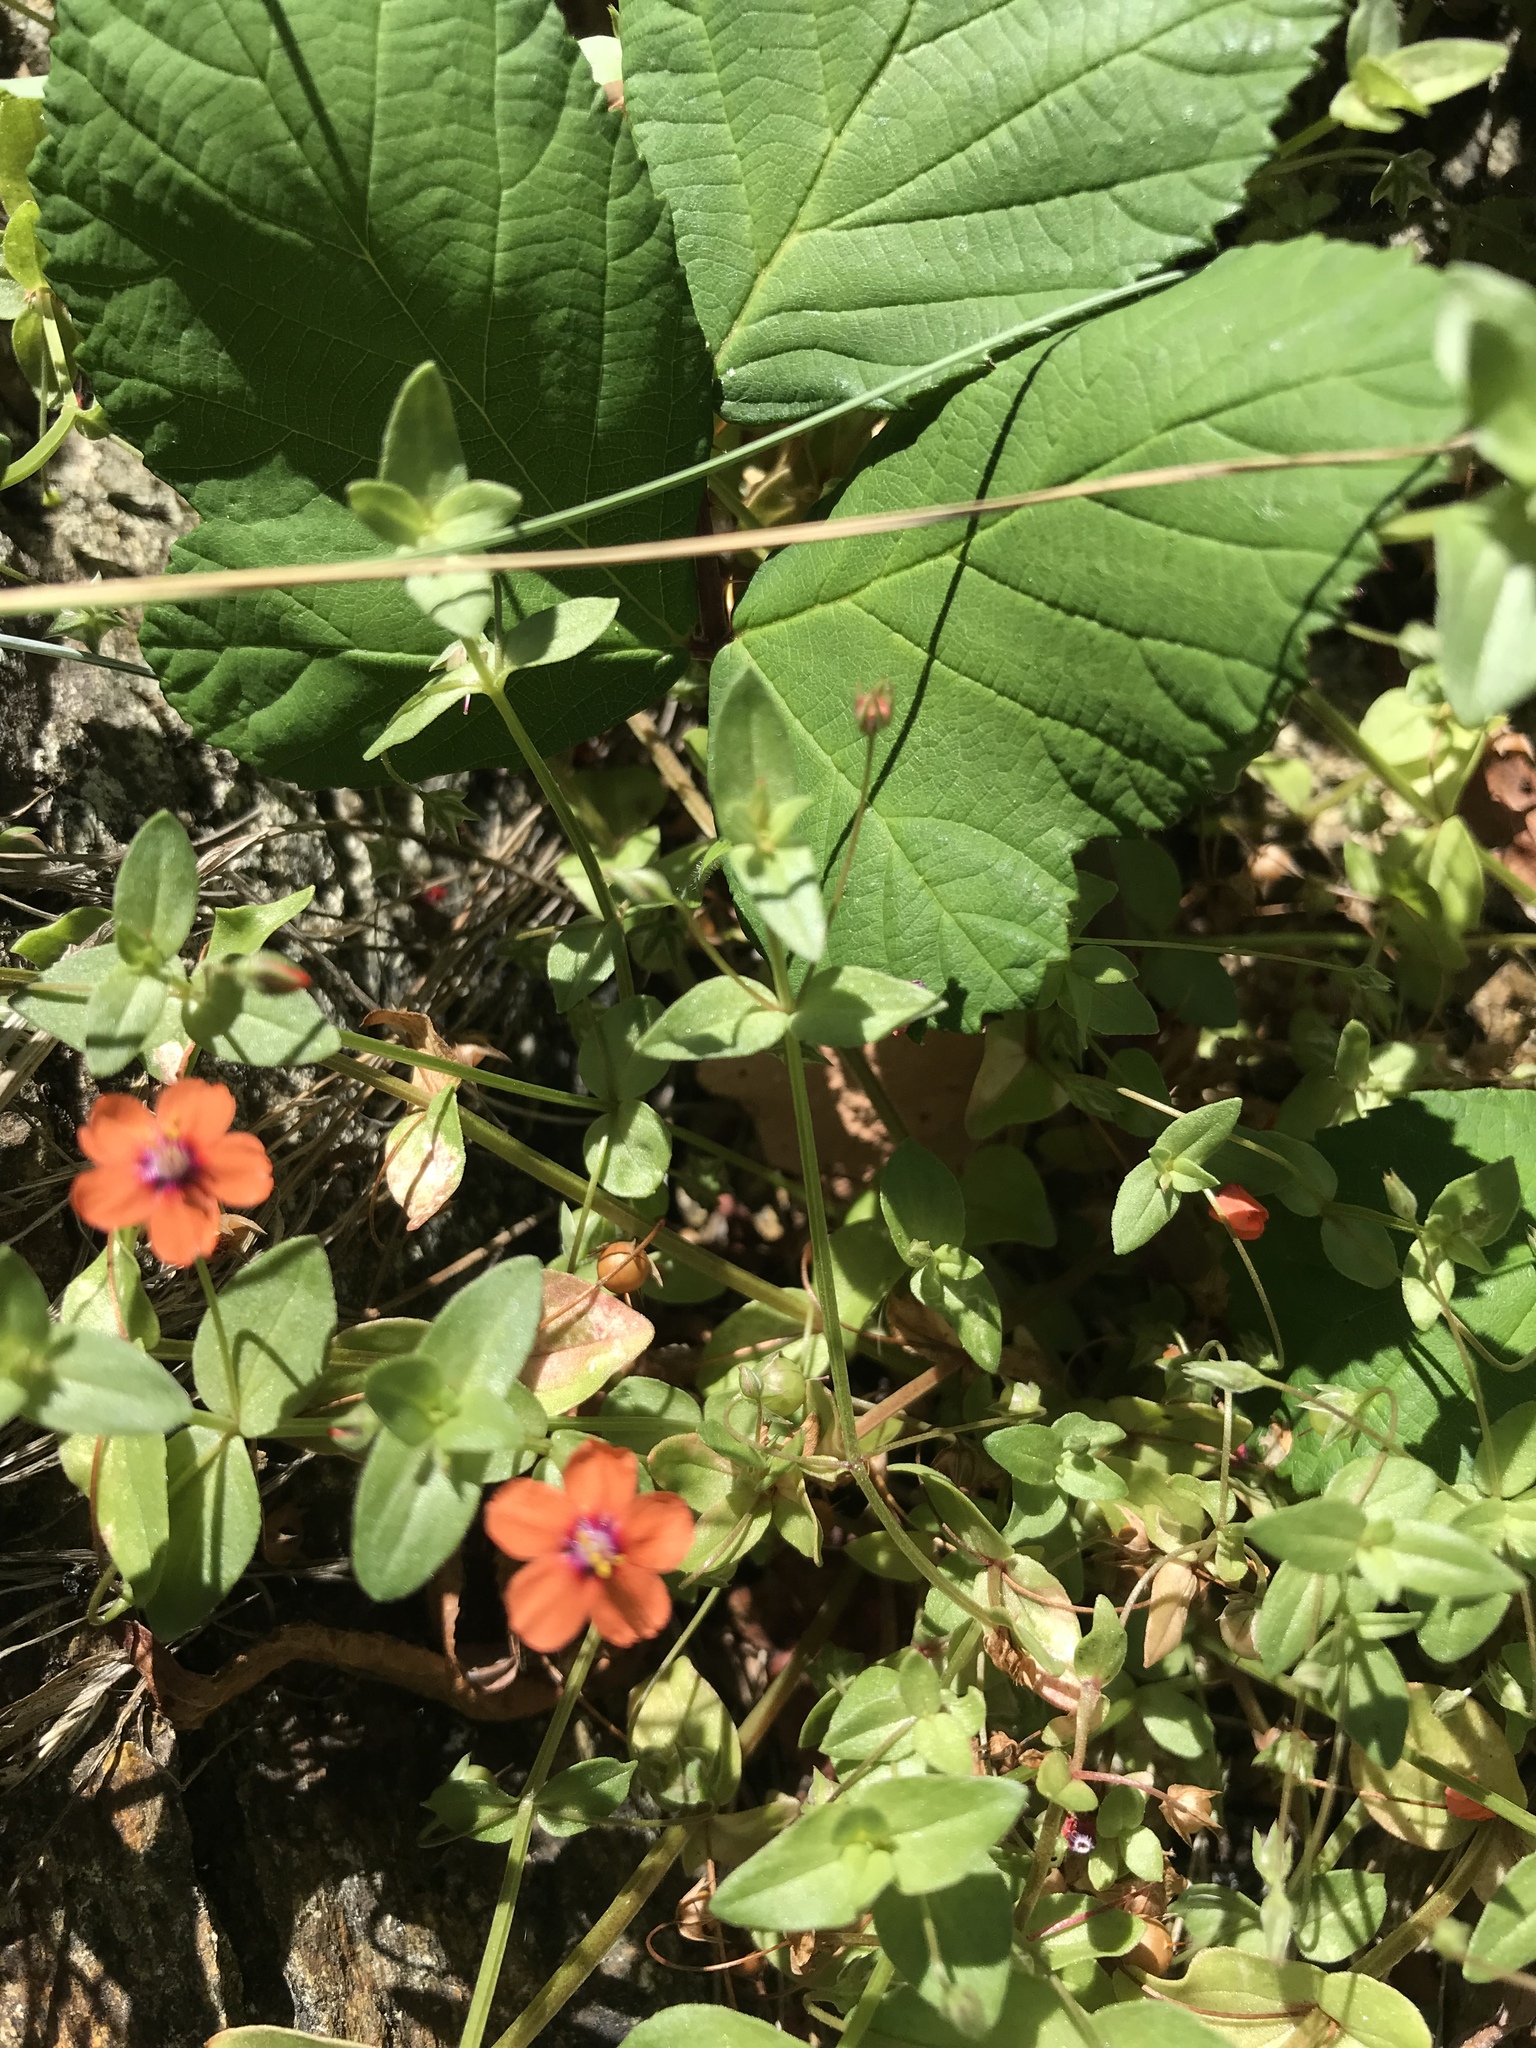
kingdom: Plantae
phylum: Tracheophyta
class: Magnoliopsida
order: Ericales
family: Primulaceae
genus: Lysimachia
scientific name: Lysimachia arvensis
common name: Scarlet pimpernel
